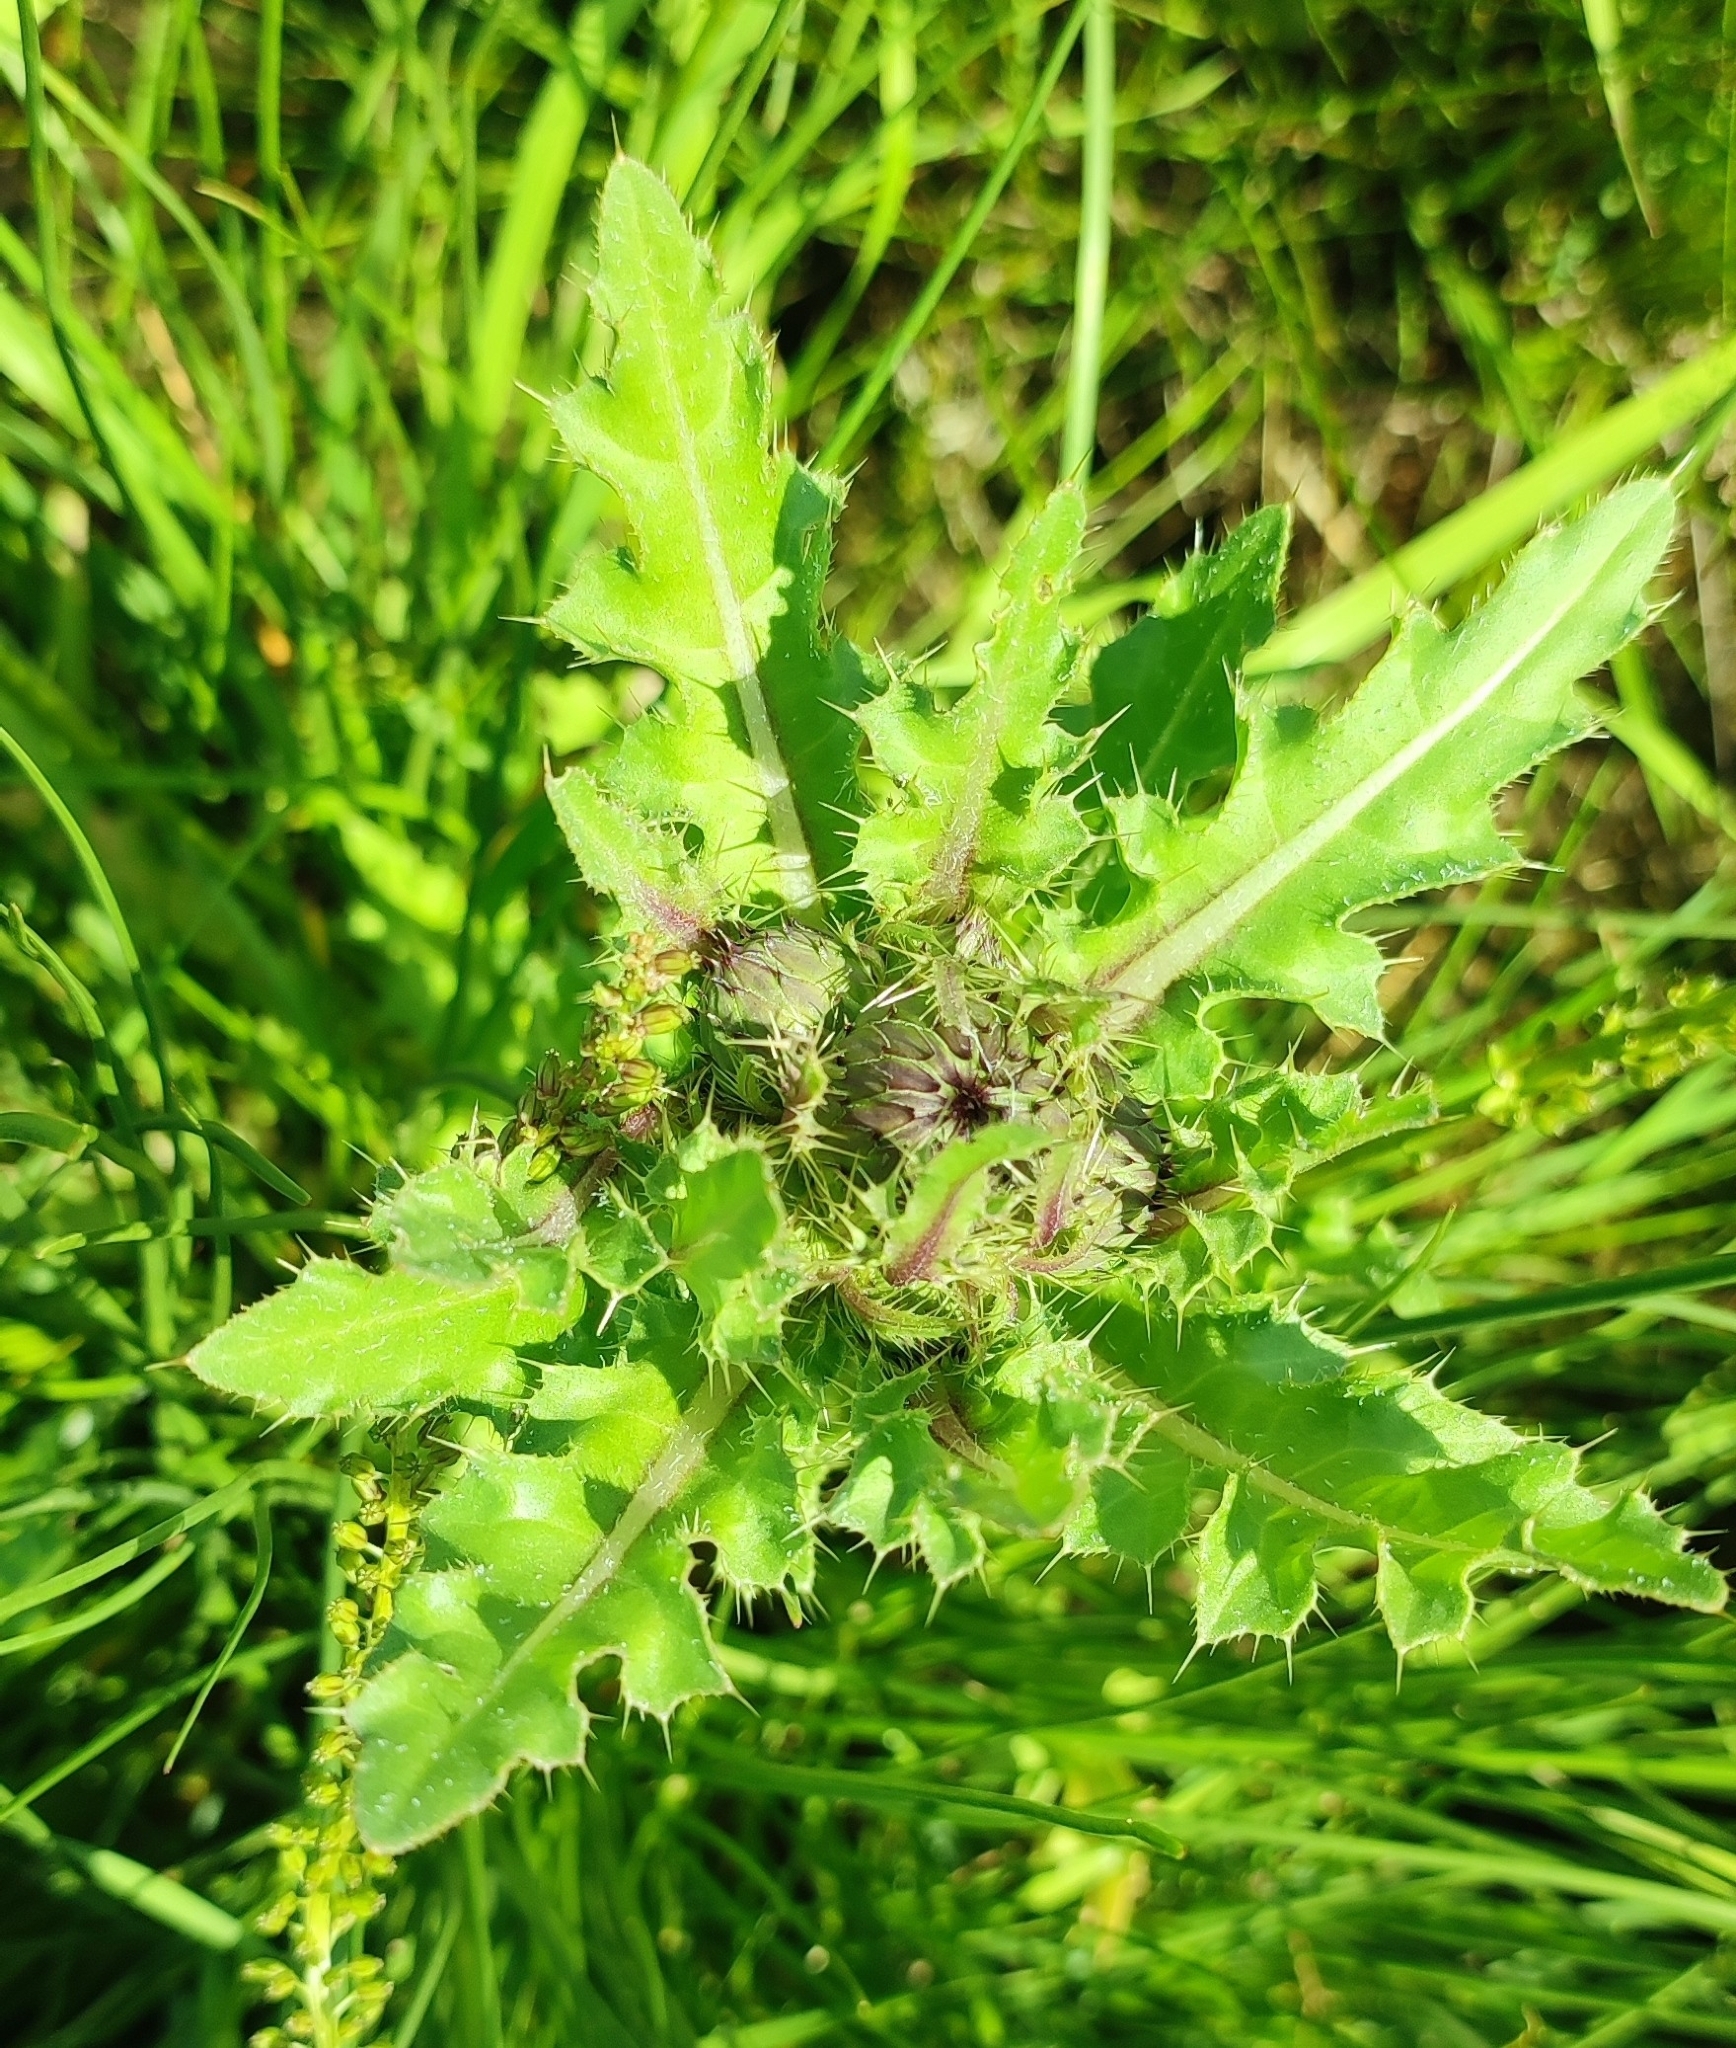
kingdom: Plantae
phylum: Tracheophyta
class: Magnoliopsida
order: Asterales
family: Asteraceae
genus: Cirsium
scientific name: Cirsium esculentum
